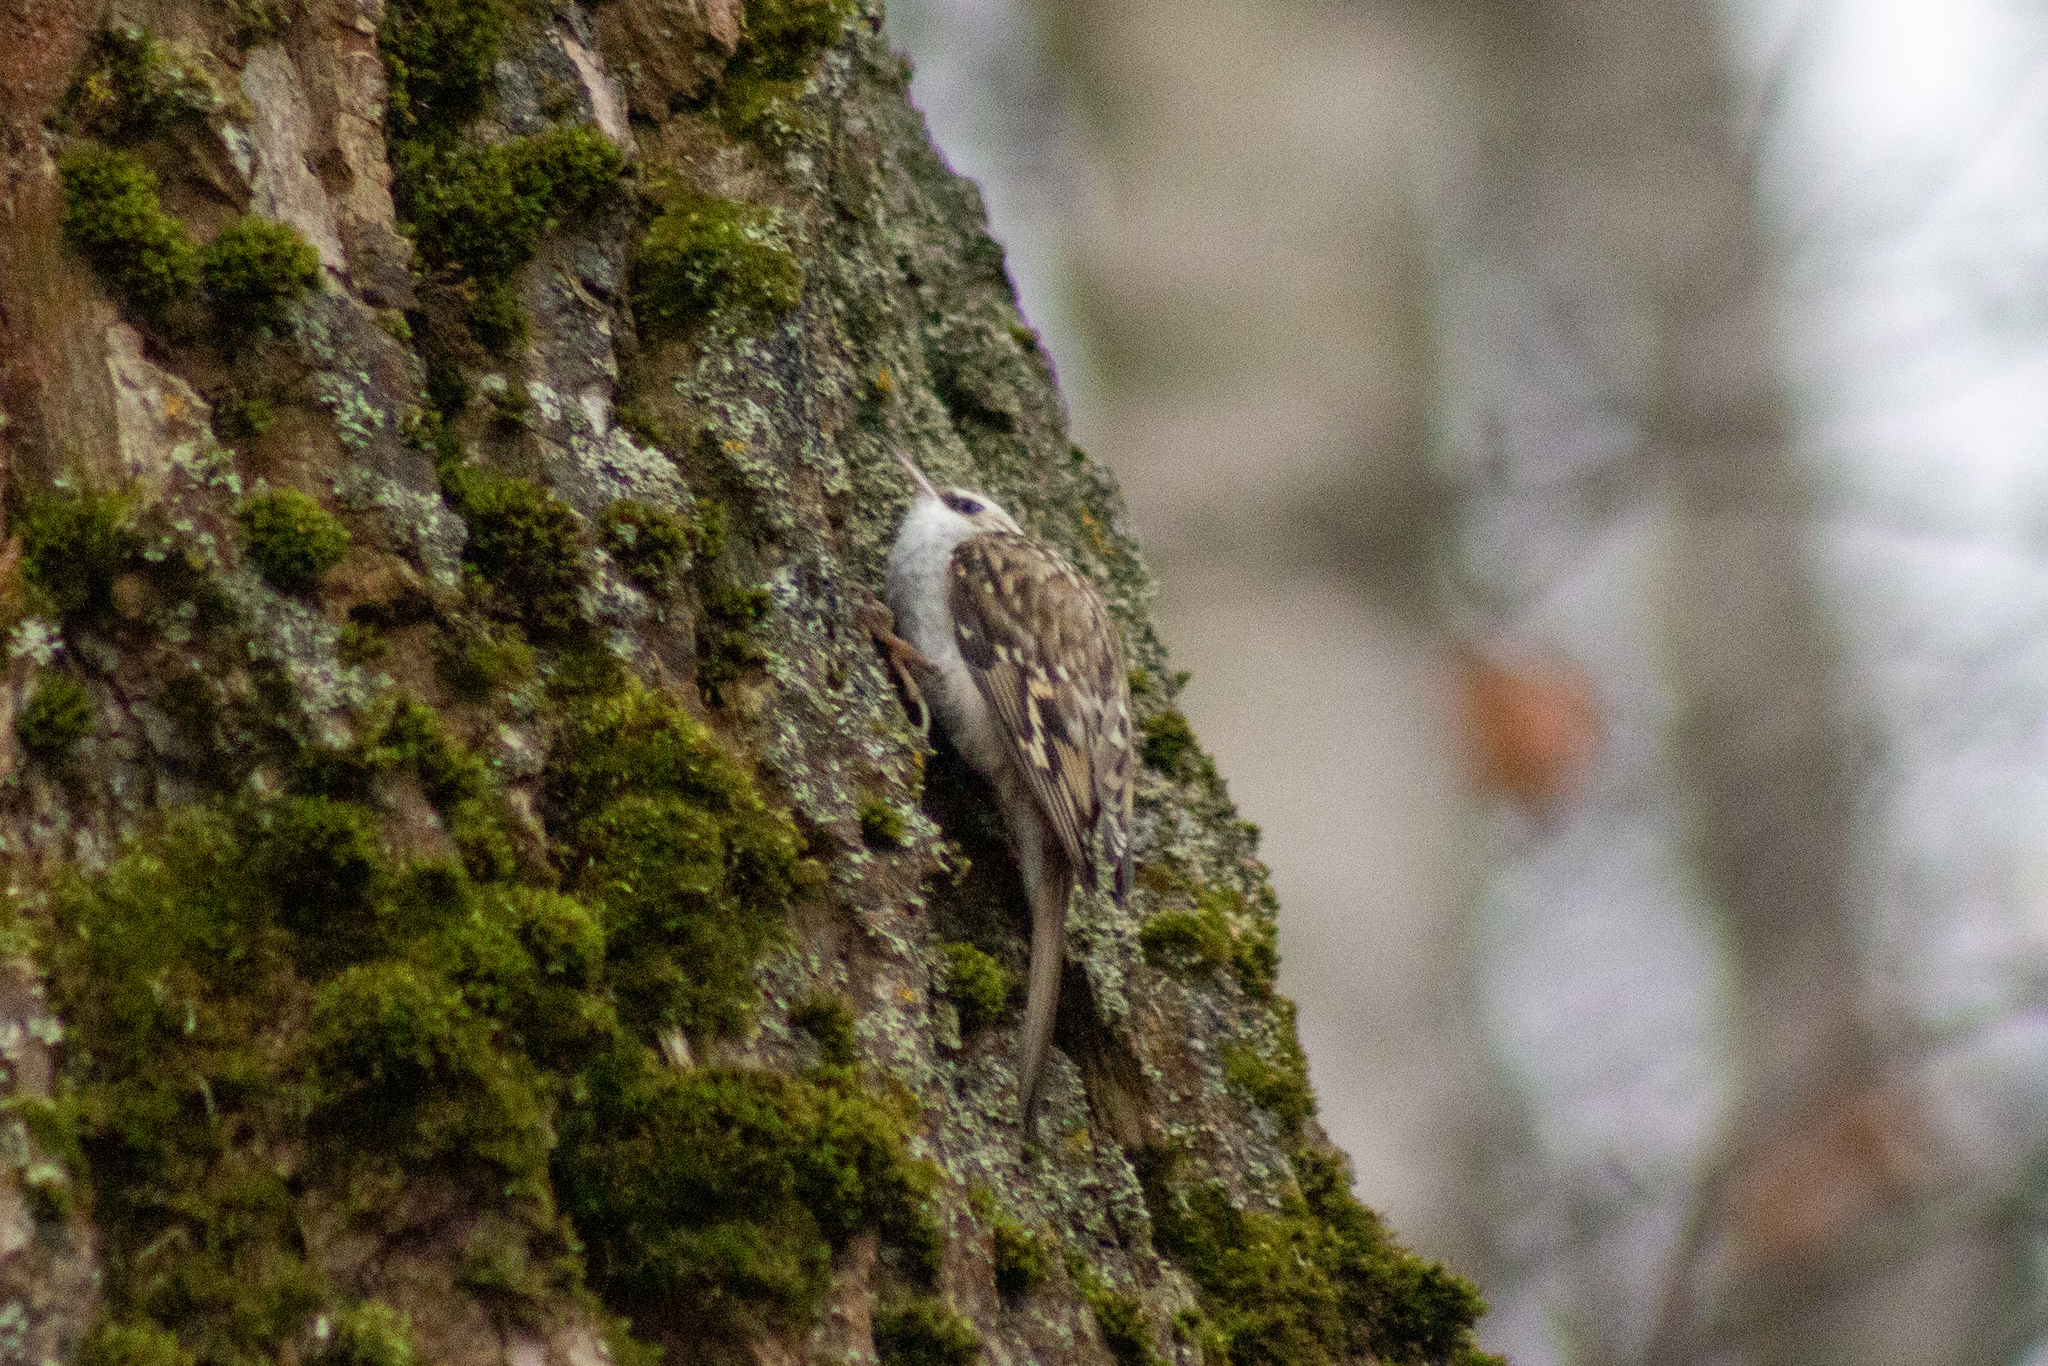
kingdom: Animalia
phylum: Chordata
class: Aves
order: Passeriformes
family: Certhiidae
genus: Certhia
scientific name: Certhia familiaris
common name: Eurasian treecreeper
